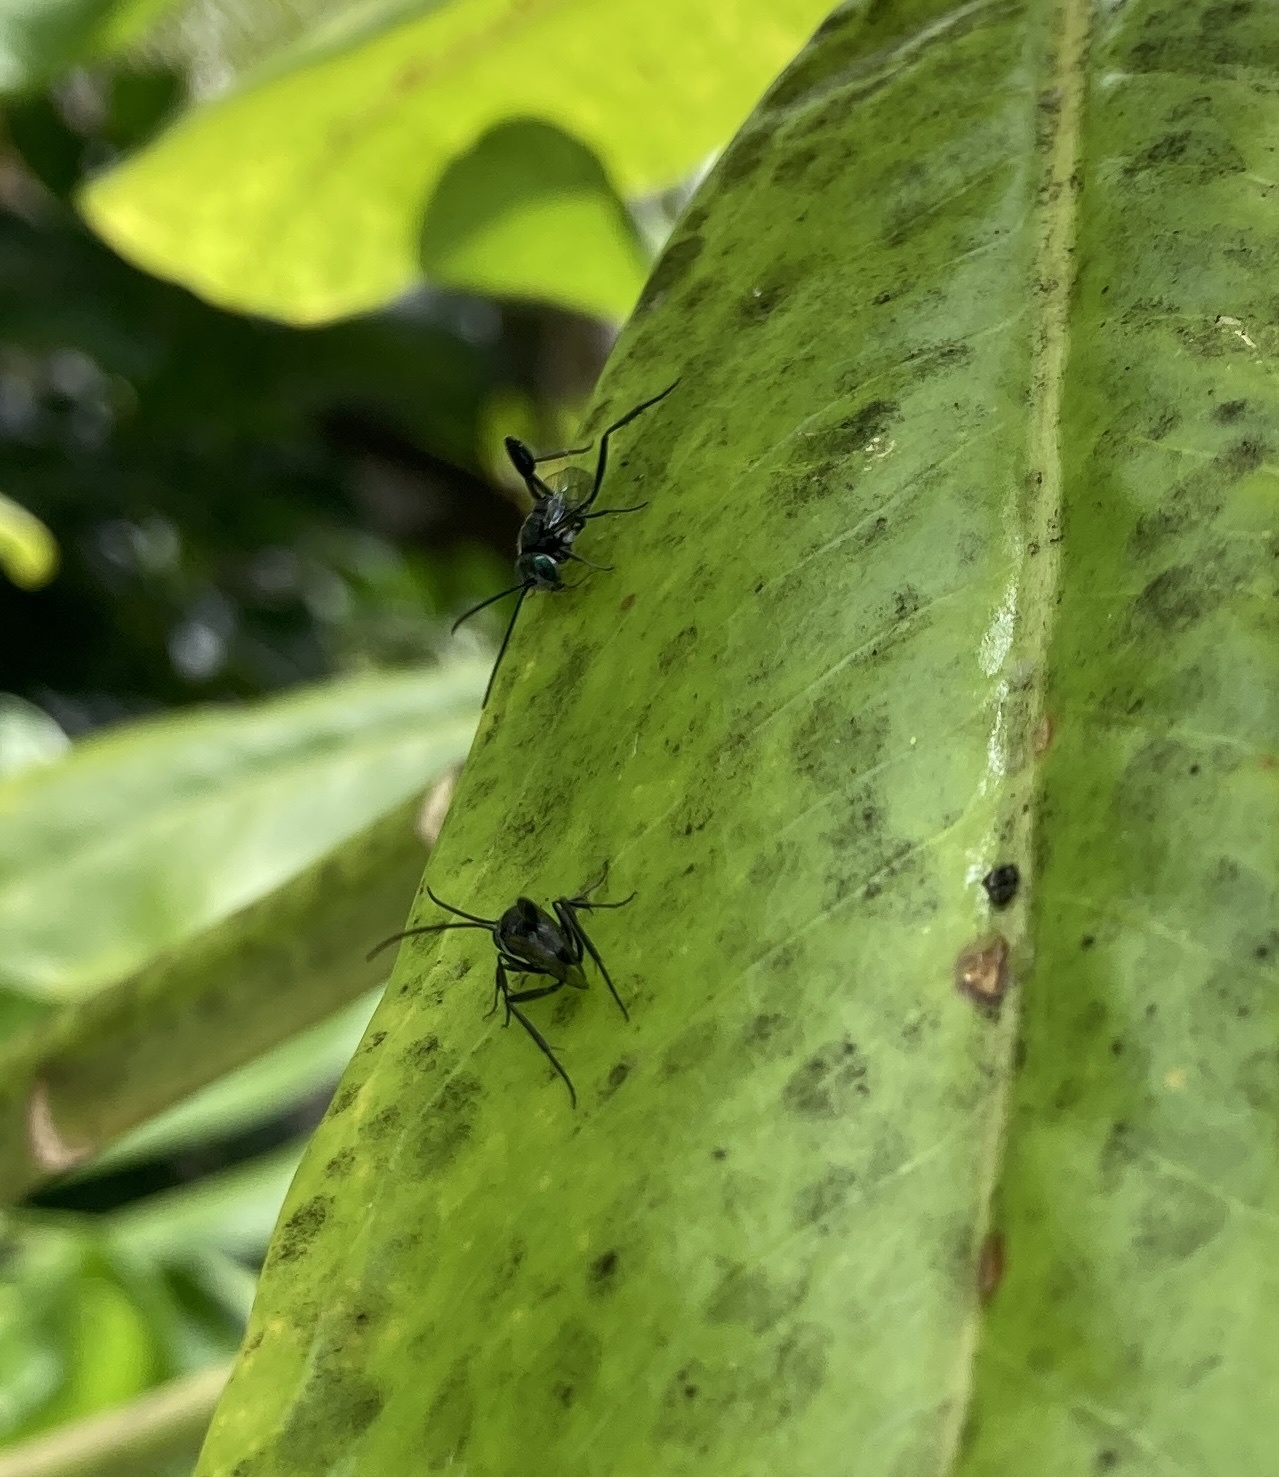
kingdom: Animalia
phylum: Arthropoda
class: Insecta
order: Hymenoptera
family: Evaniidae
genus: Szepligetella
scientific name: Szepligetella sericea
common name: Lesser ensign wasp
